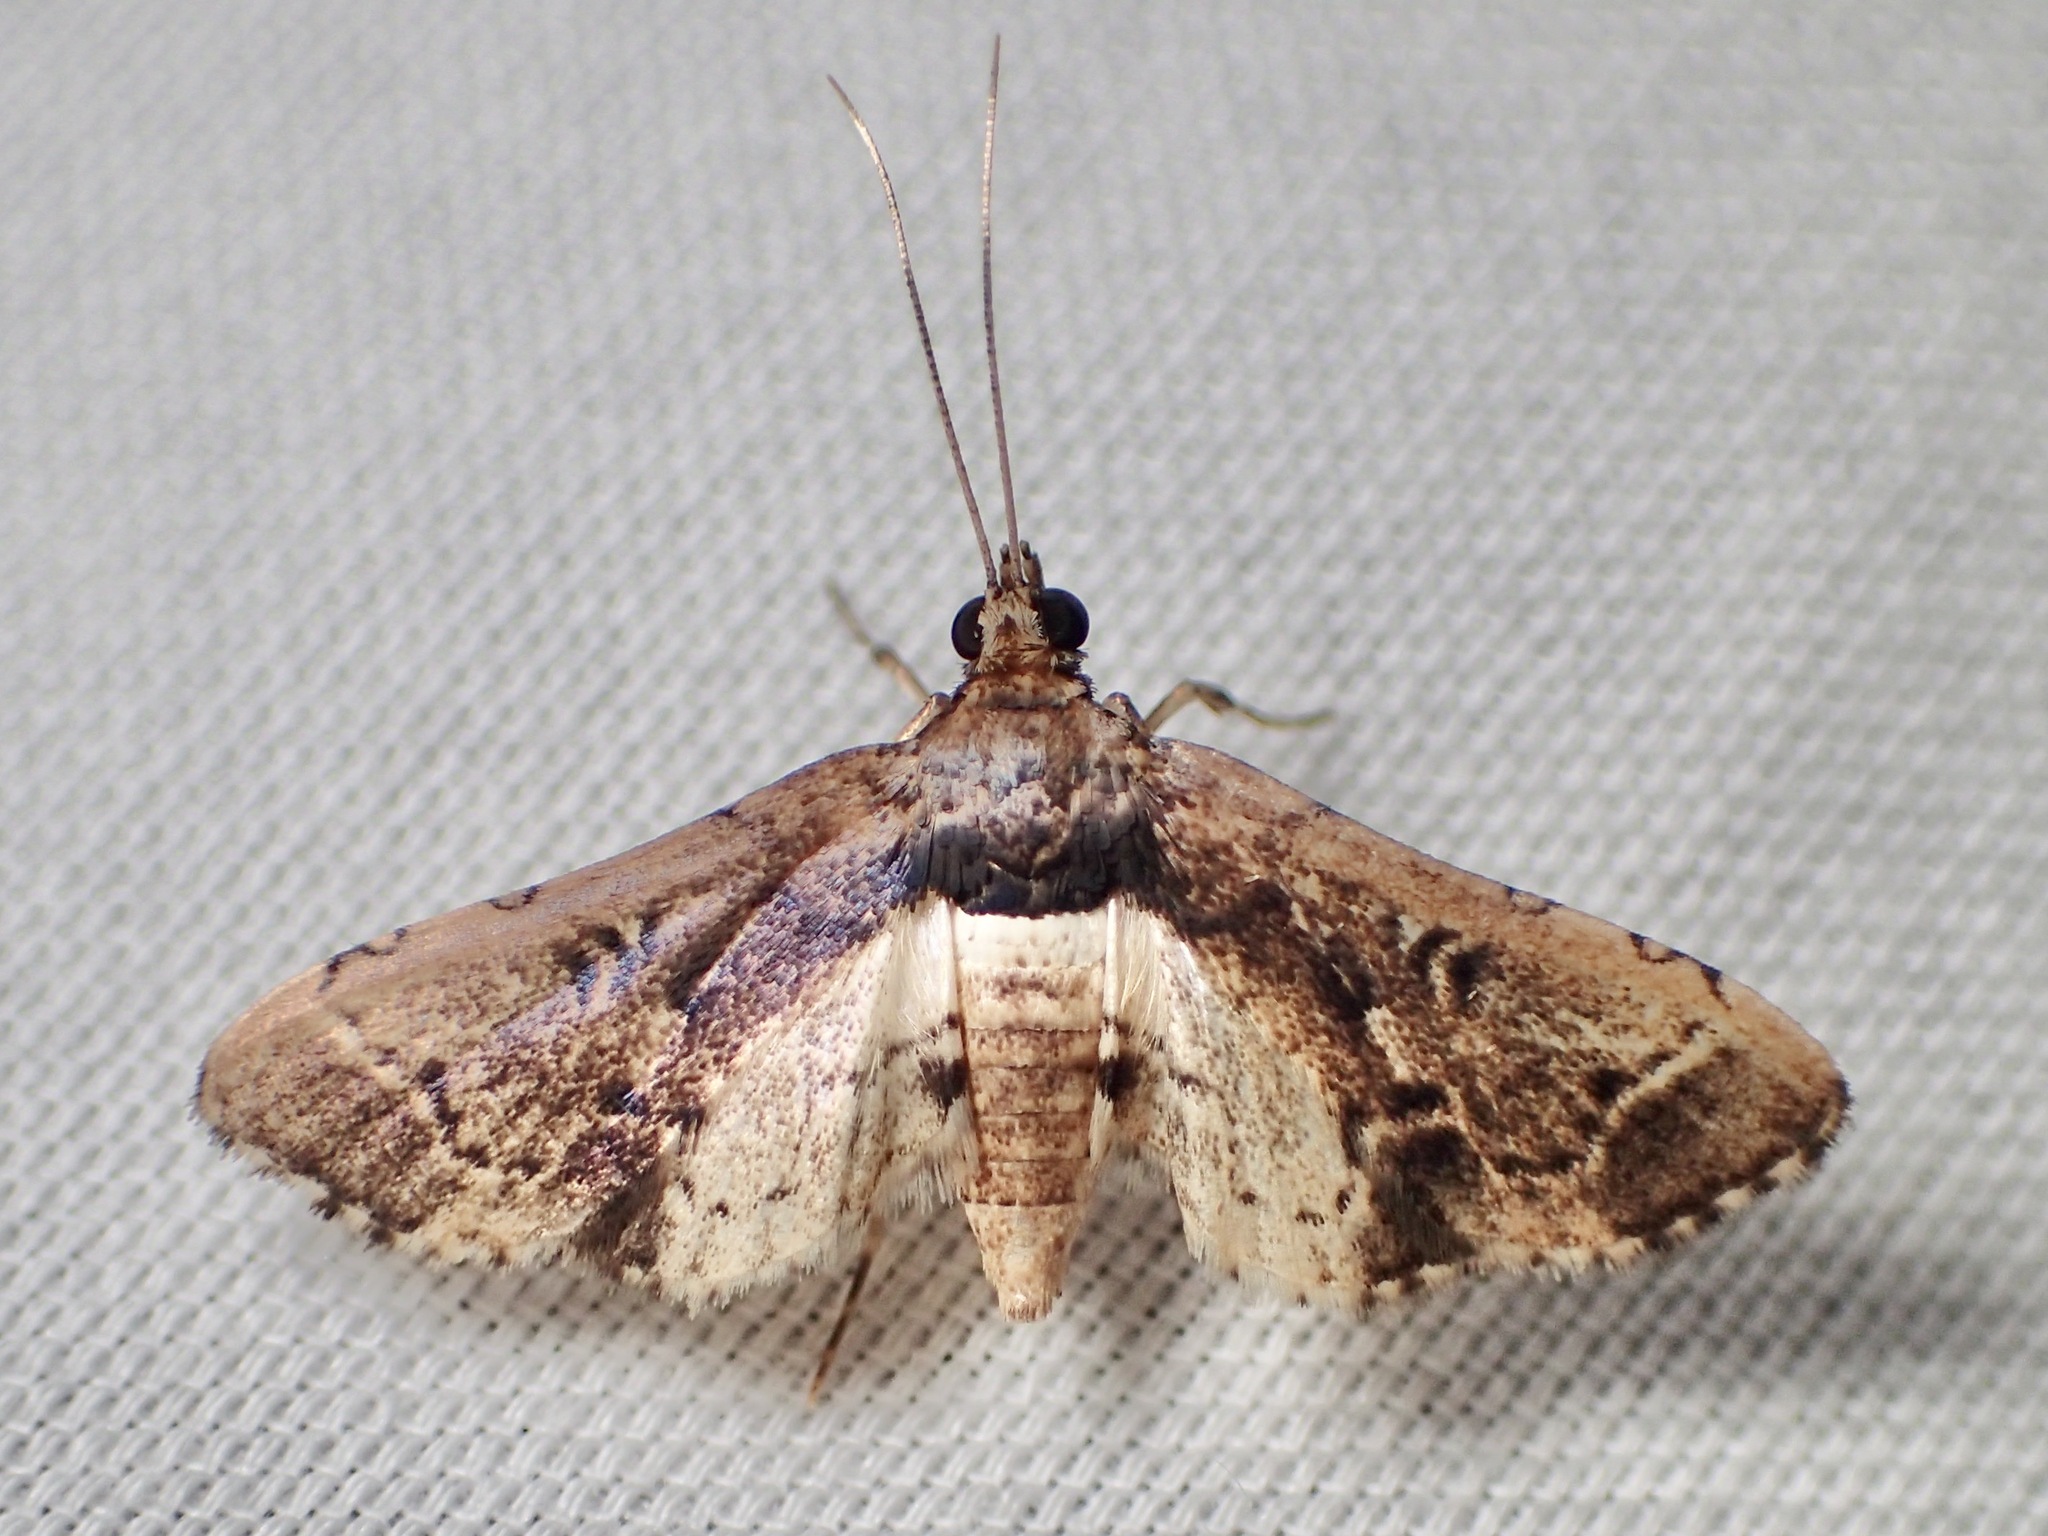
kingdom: Animalia
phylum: Arthropoda
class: Insecta
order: Lepidoptera
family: Crambidae
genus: Nacoleia
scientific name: Nacoleia obliqualis
